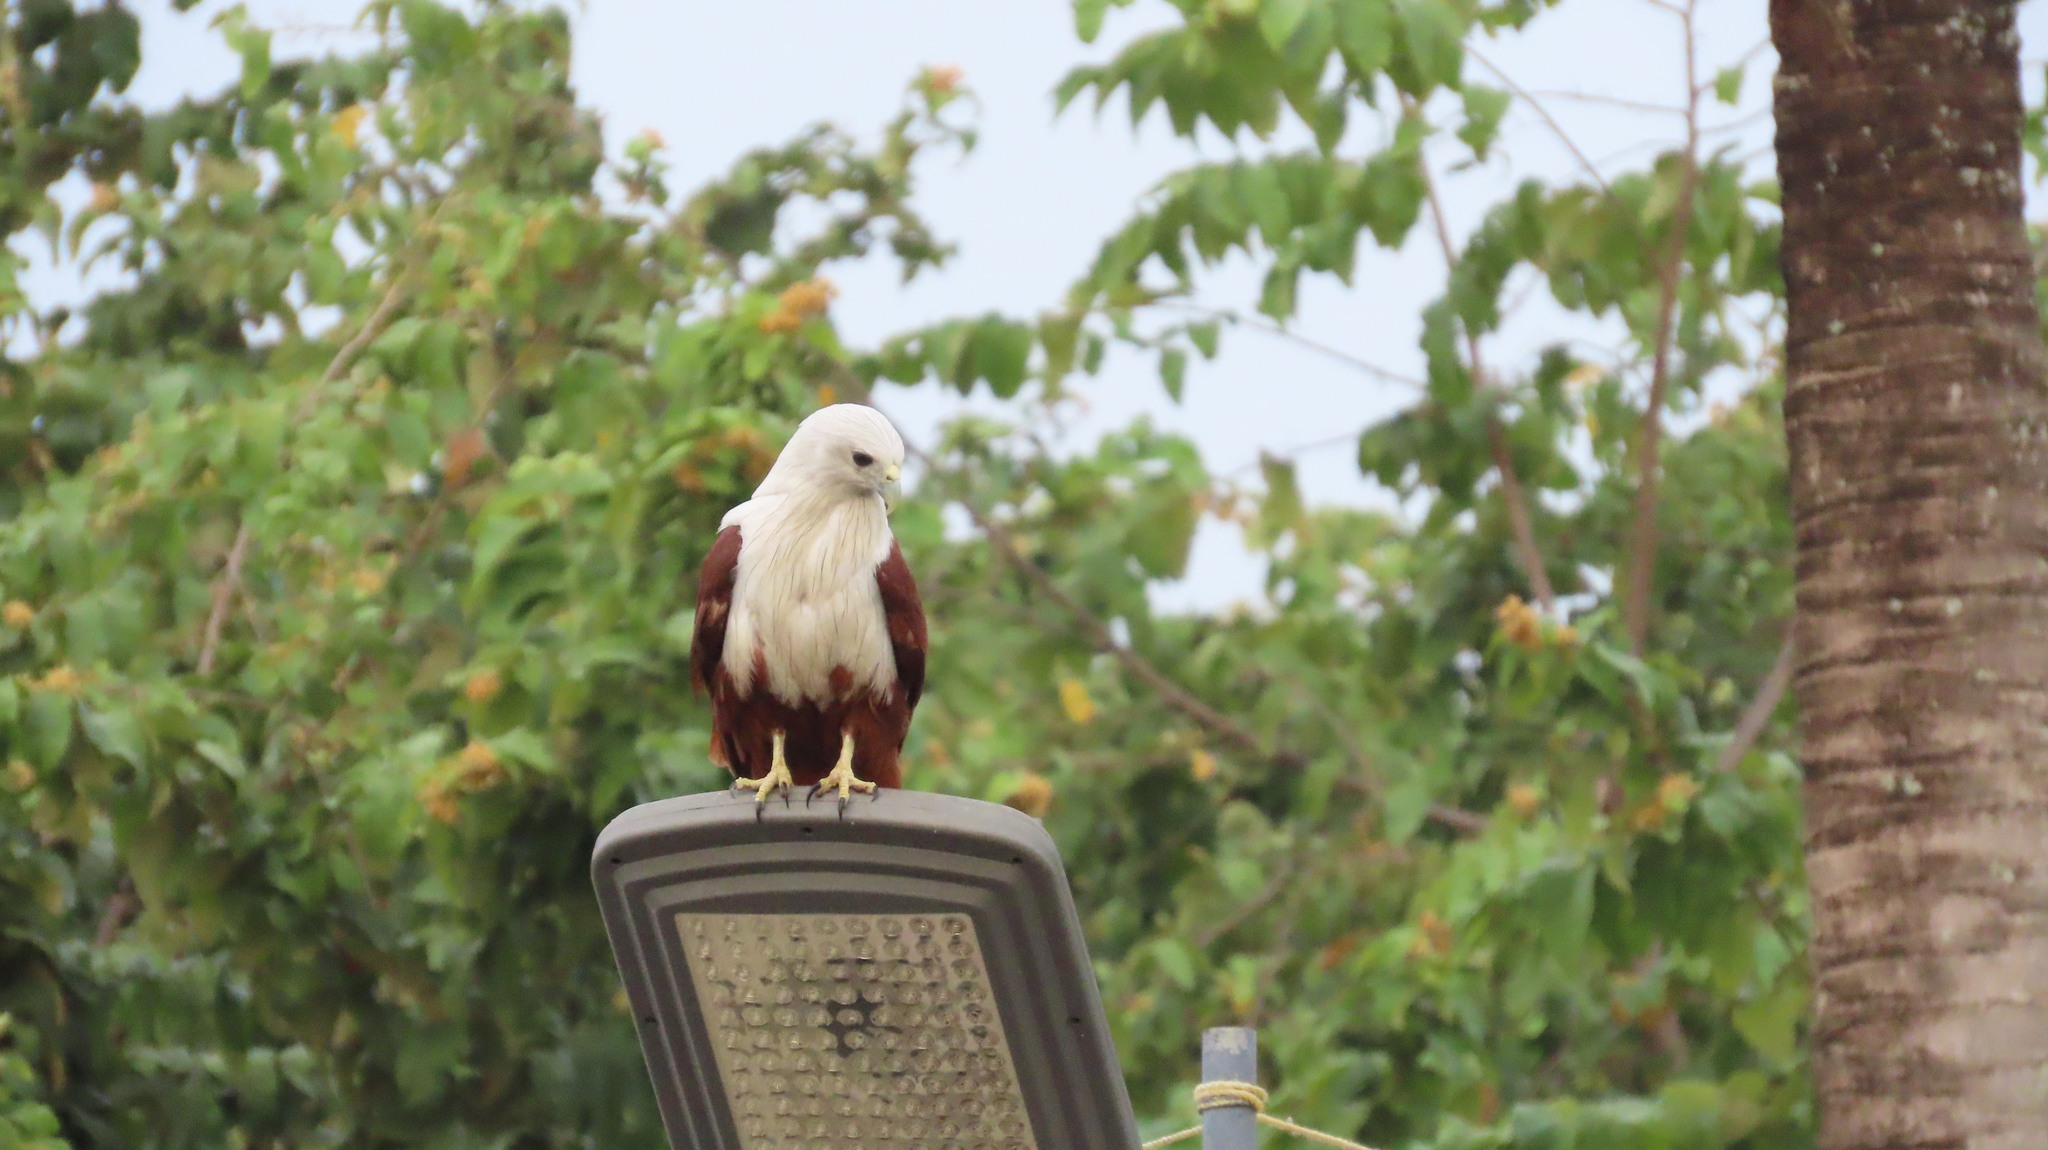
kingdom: Animalia
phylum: Chordata
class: Aves
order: Accipitriformes
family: Accipitridae
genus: Haliastur
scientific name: Haliastur indus
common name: Brahminy kite
